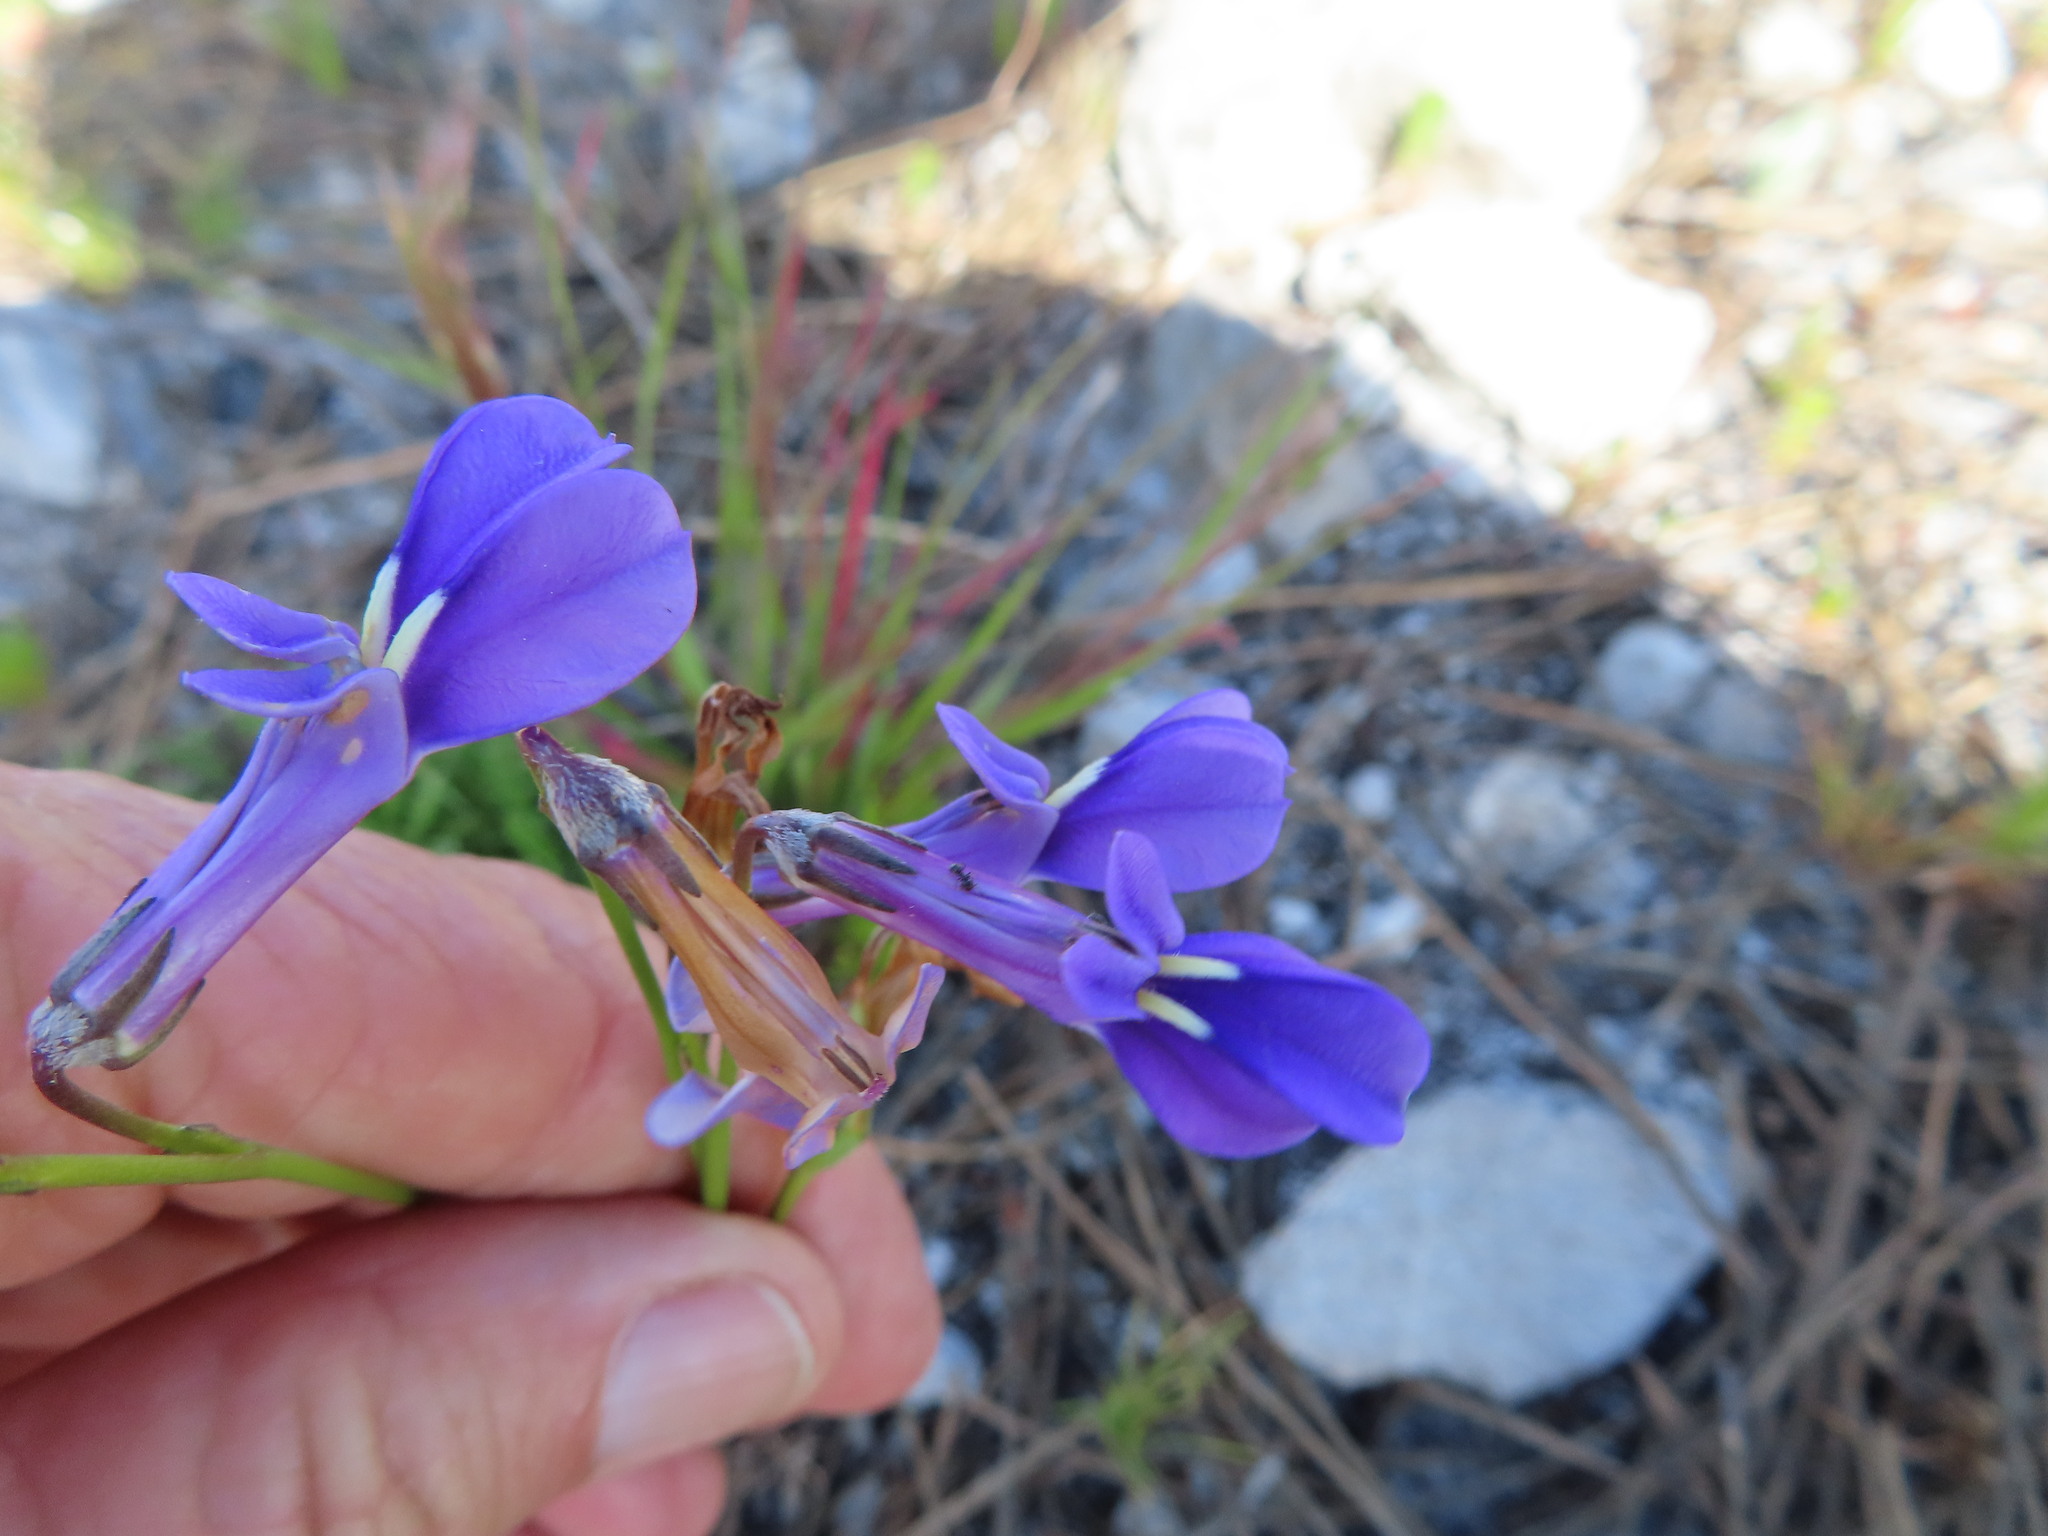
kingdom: Plantae
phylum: Tracheophyta
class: Magnoliopsida
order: Asterales
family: Campanulaceae
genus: Lobelia
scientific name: Lobelia coronopifolia
